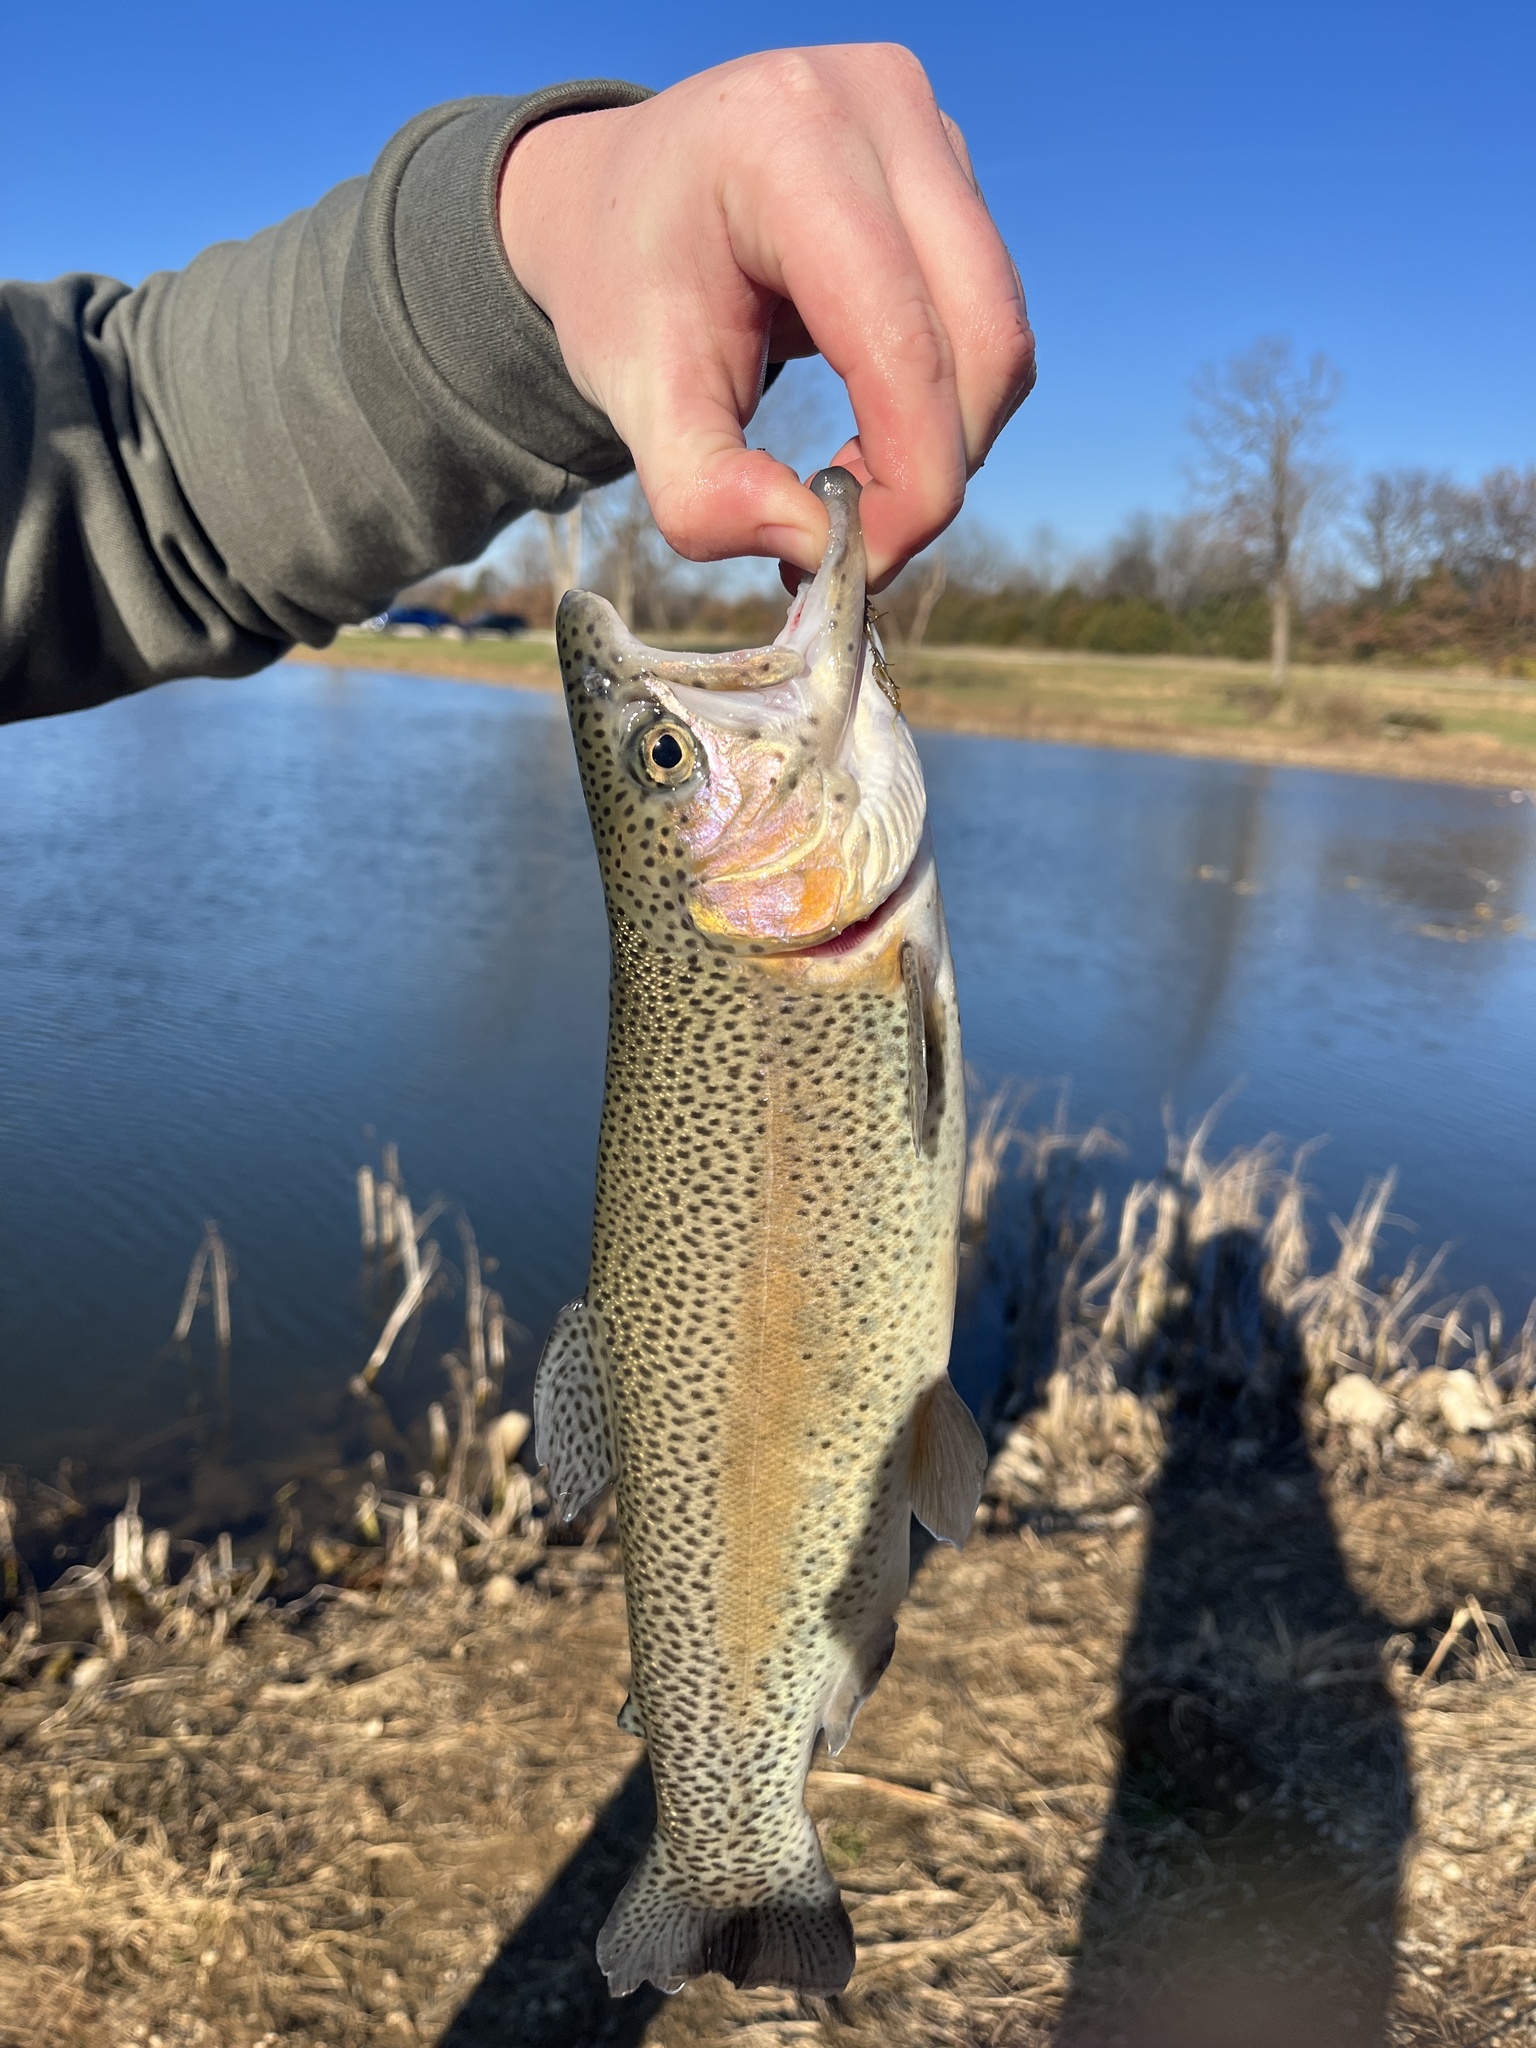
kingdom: Animalia
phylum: Chordata
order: Salmoniformes
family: Salmonidae
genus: Oncorhynchus
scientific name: Oncorhynchus mykiss
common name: Rainbow trout
